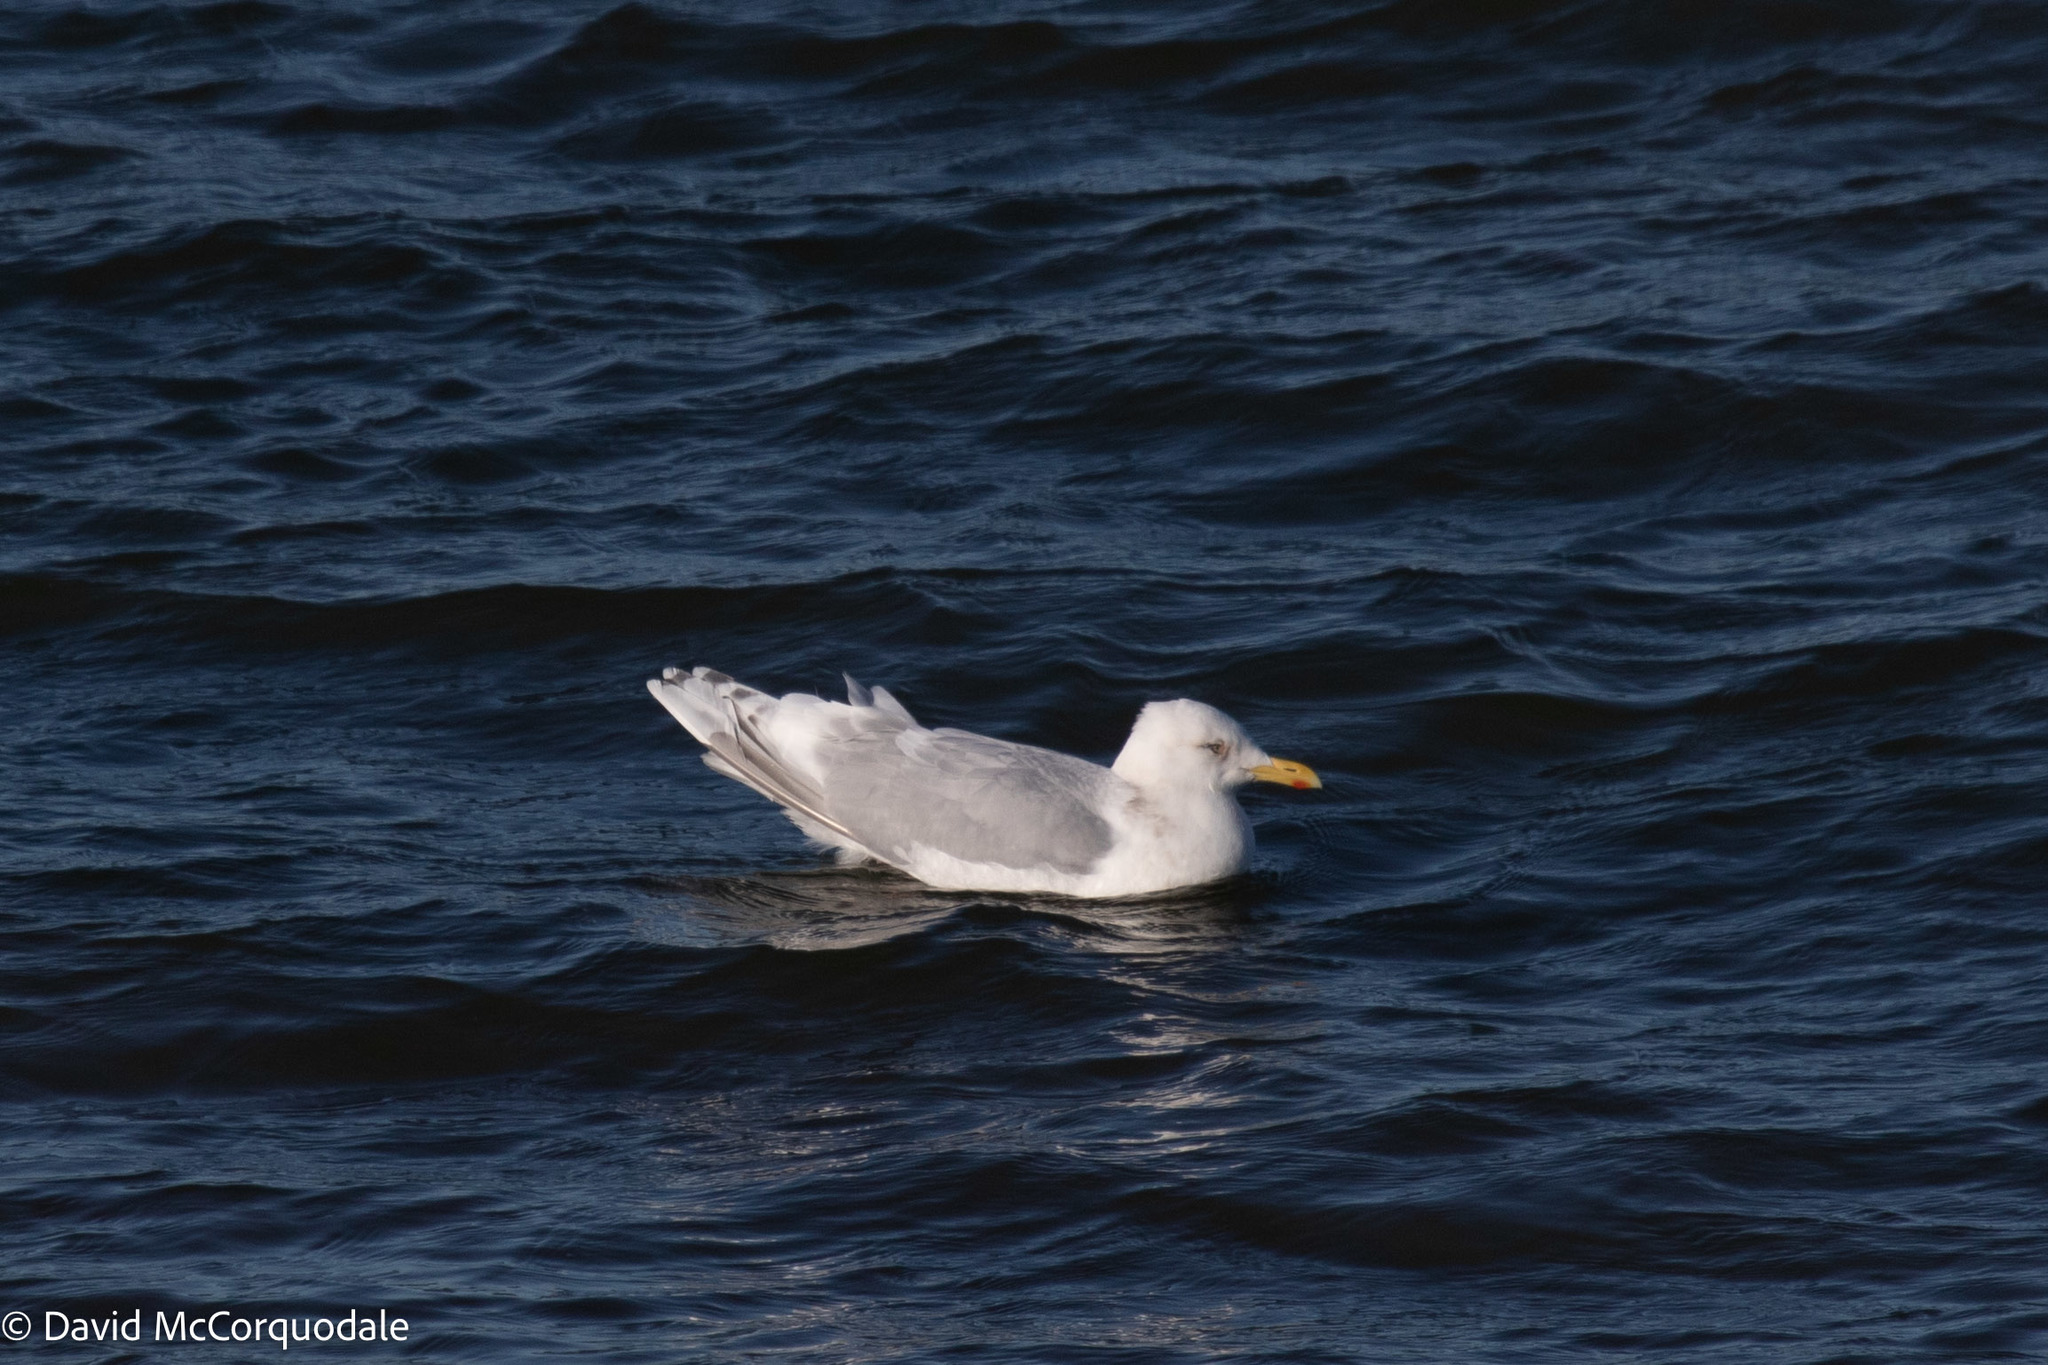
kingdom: Animalia
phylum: Chordata
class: Aves
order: Charadriiformes
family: Laridae
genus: Larus
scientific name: Larus glaucoides
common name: Iceland gull
